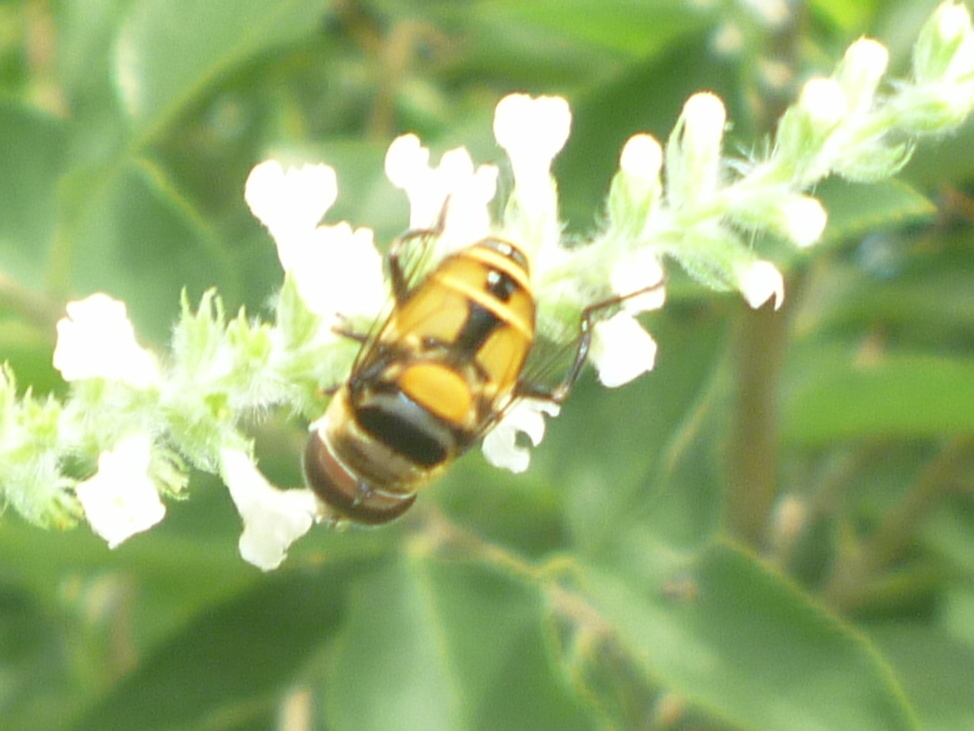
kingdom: Animalia
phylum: Arthropoda
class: Insecta
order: Diptera
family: Syrphidae
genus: Palpada
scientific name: Palpada agrorum
